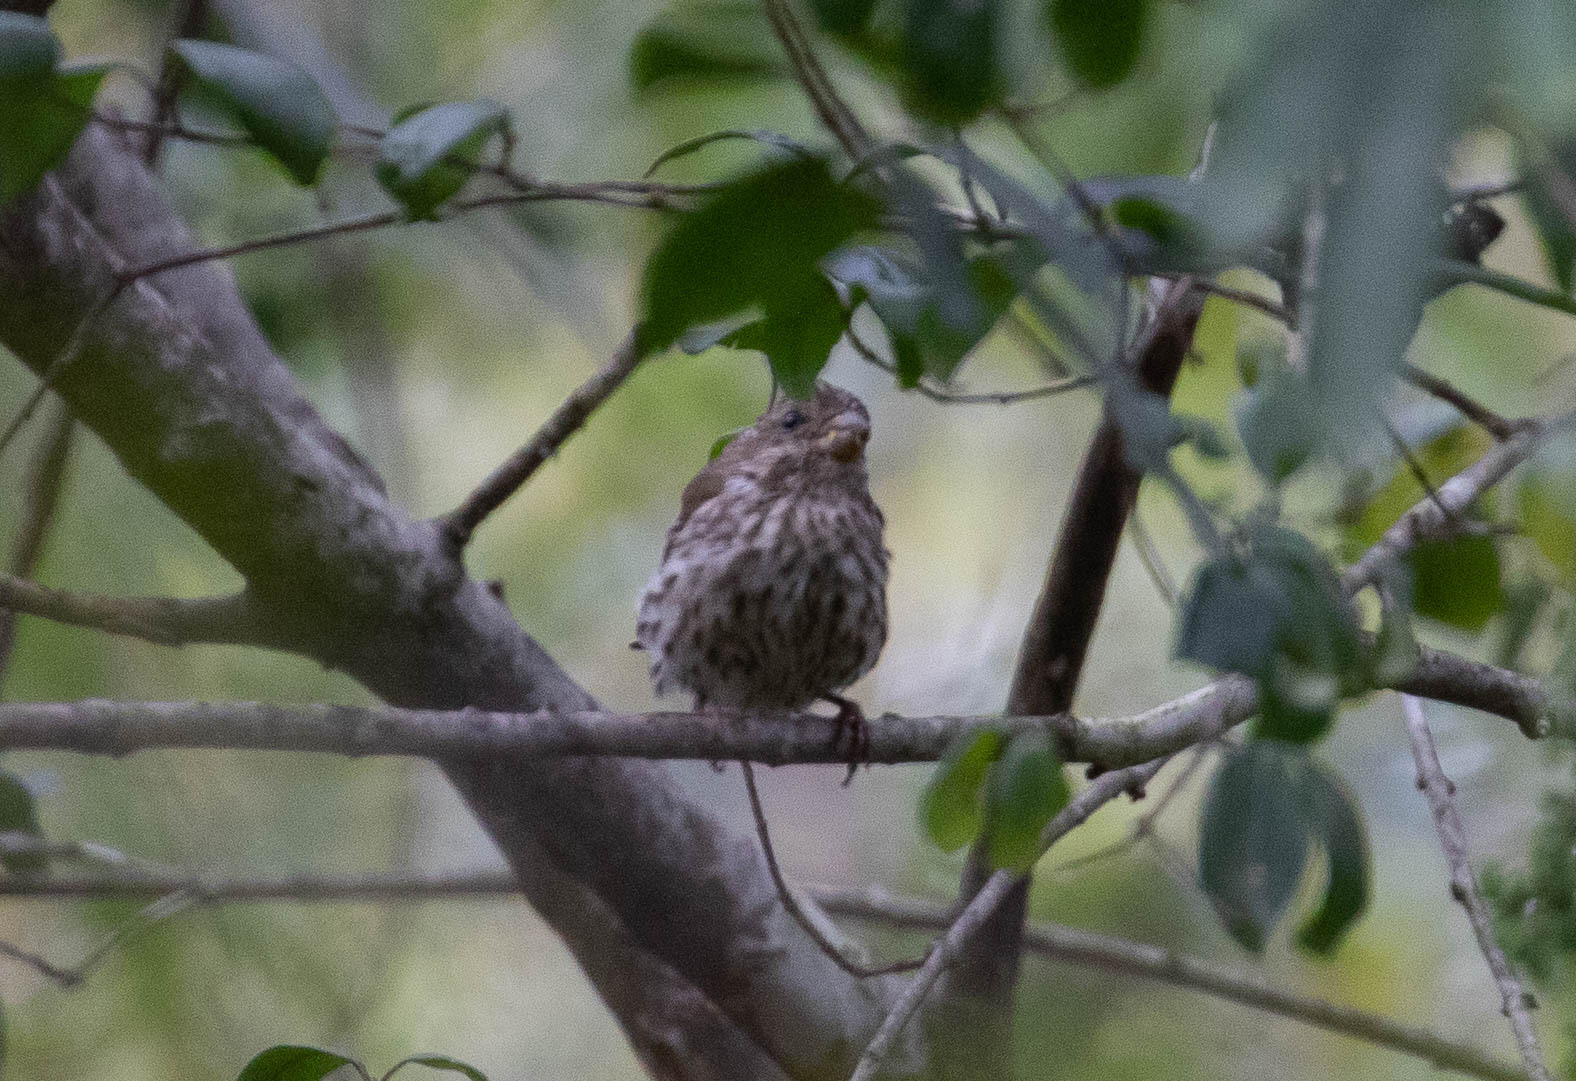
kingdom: Animalia
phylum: Chordata
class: Aves
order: Passeriformes
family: Fringillidae
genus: Haemorhous
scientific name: Haemorhous purpureus
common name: Purple finch
